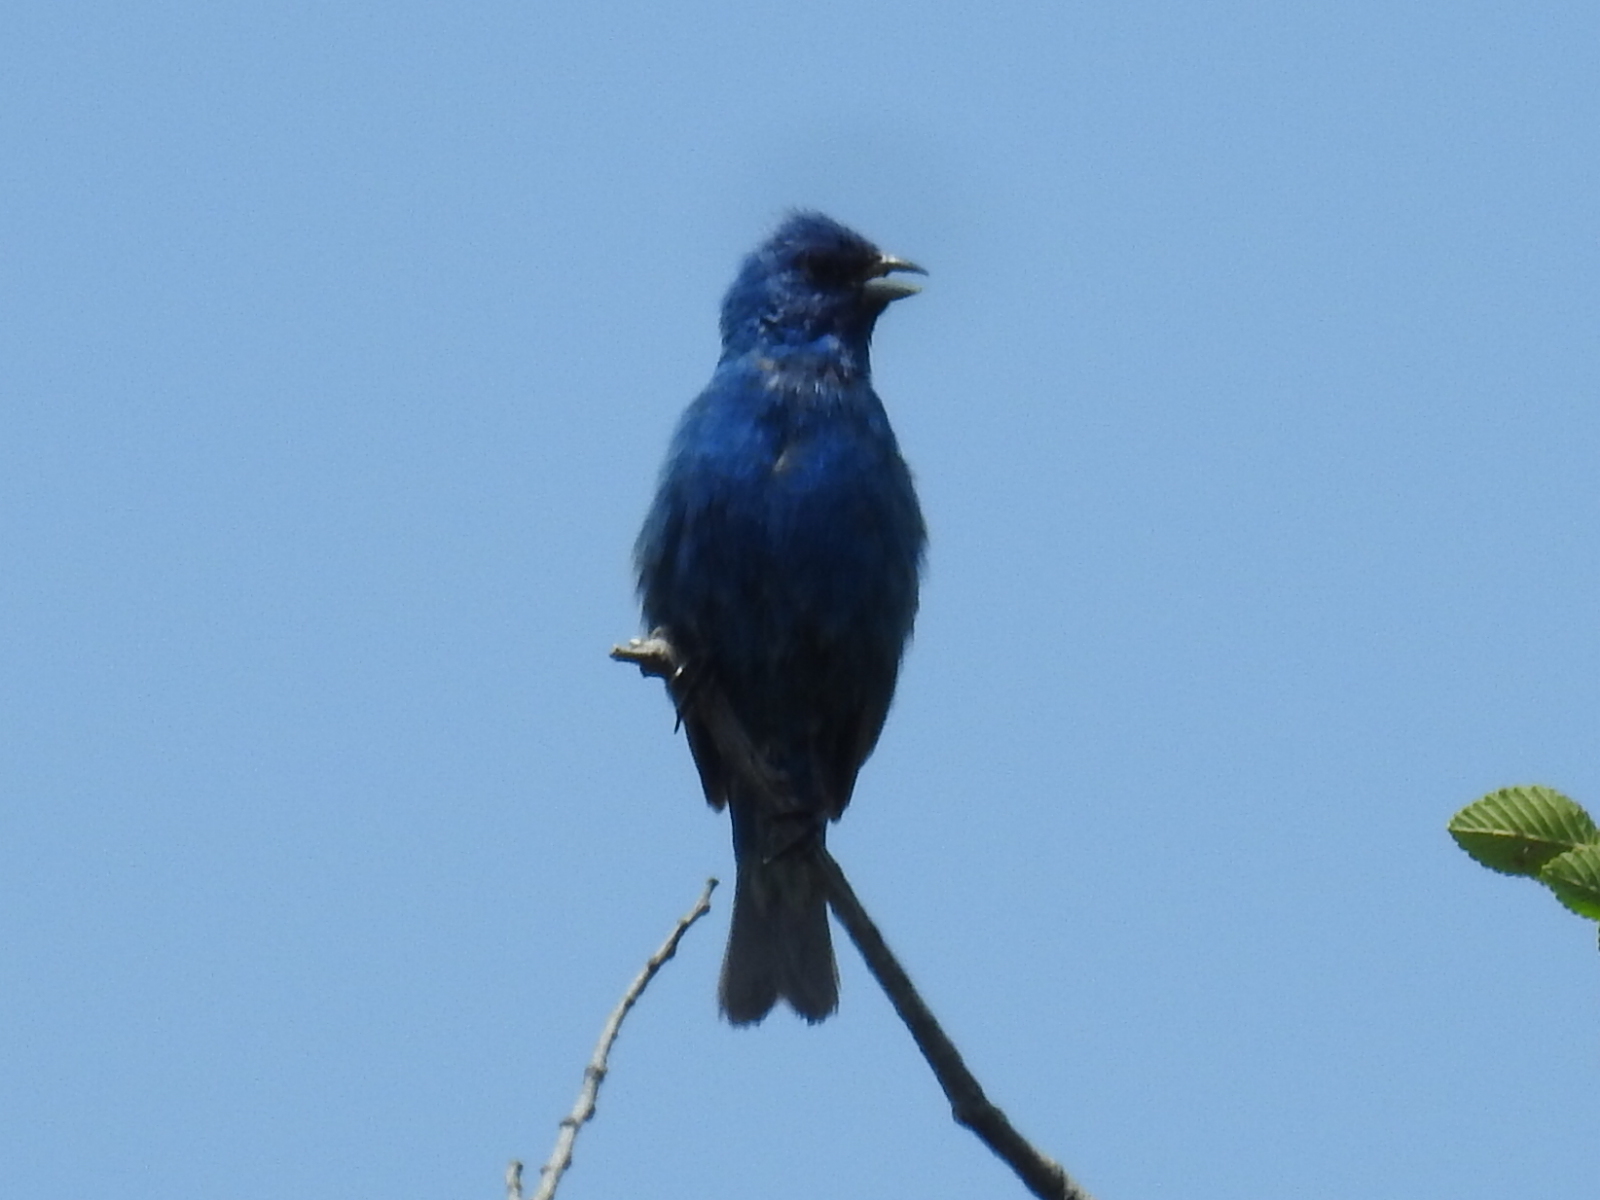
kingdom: Animalia
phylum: Chordata
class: Aves
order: Passeriformes
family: Cardinalidae
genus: Passerina
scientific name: Passerina cyanea
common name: Indigo bunting
